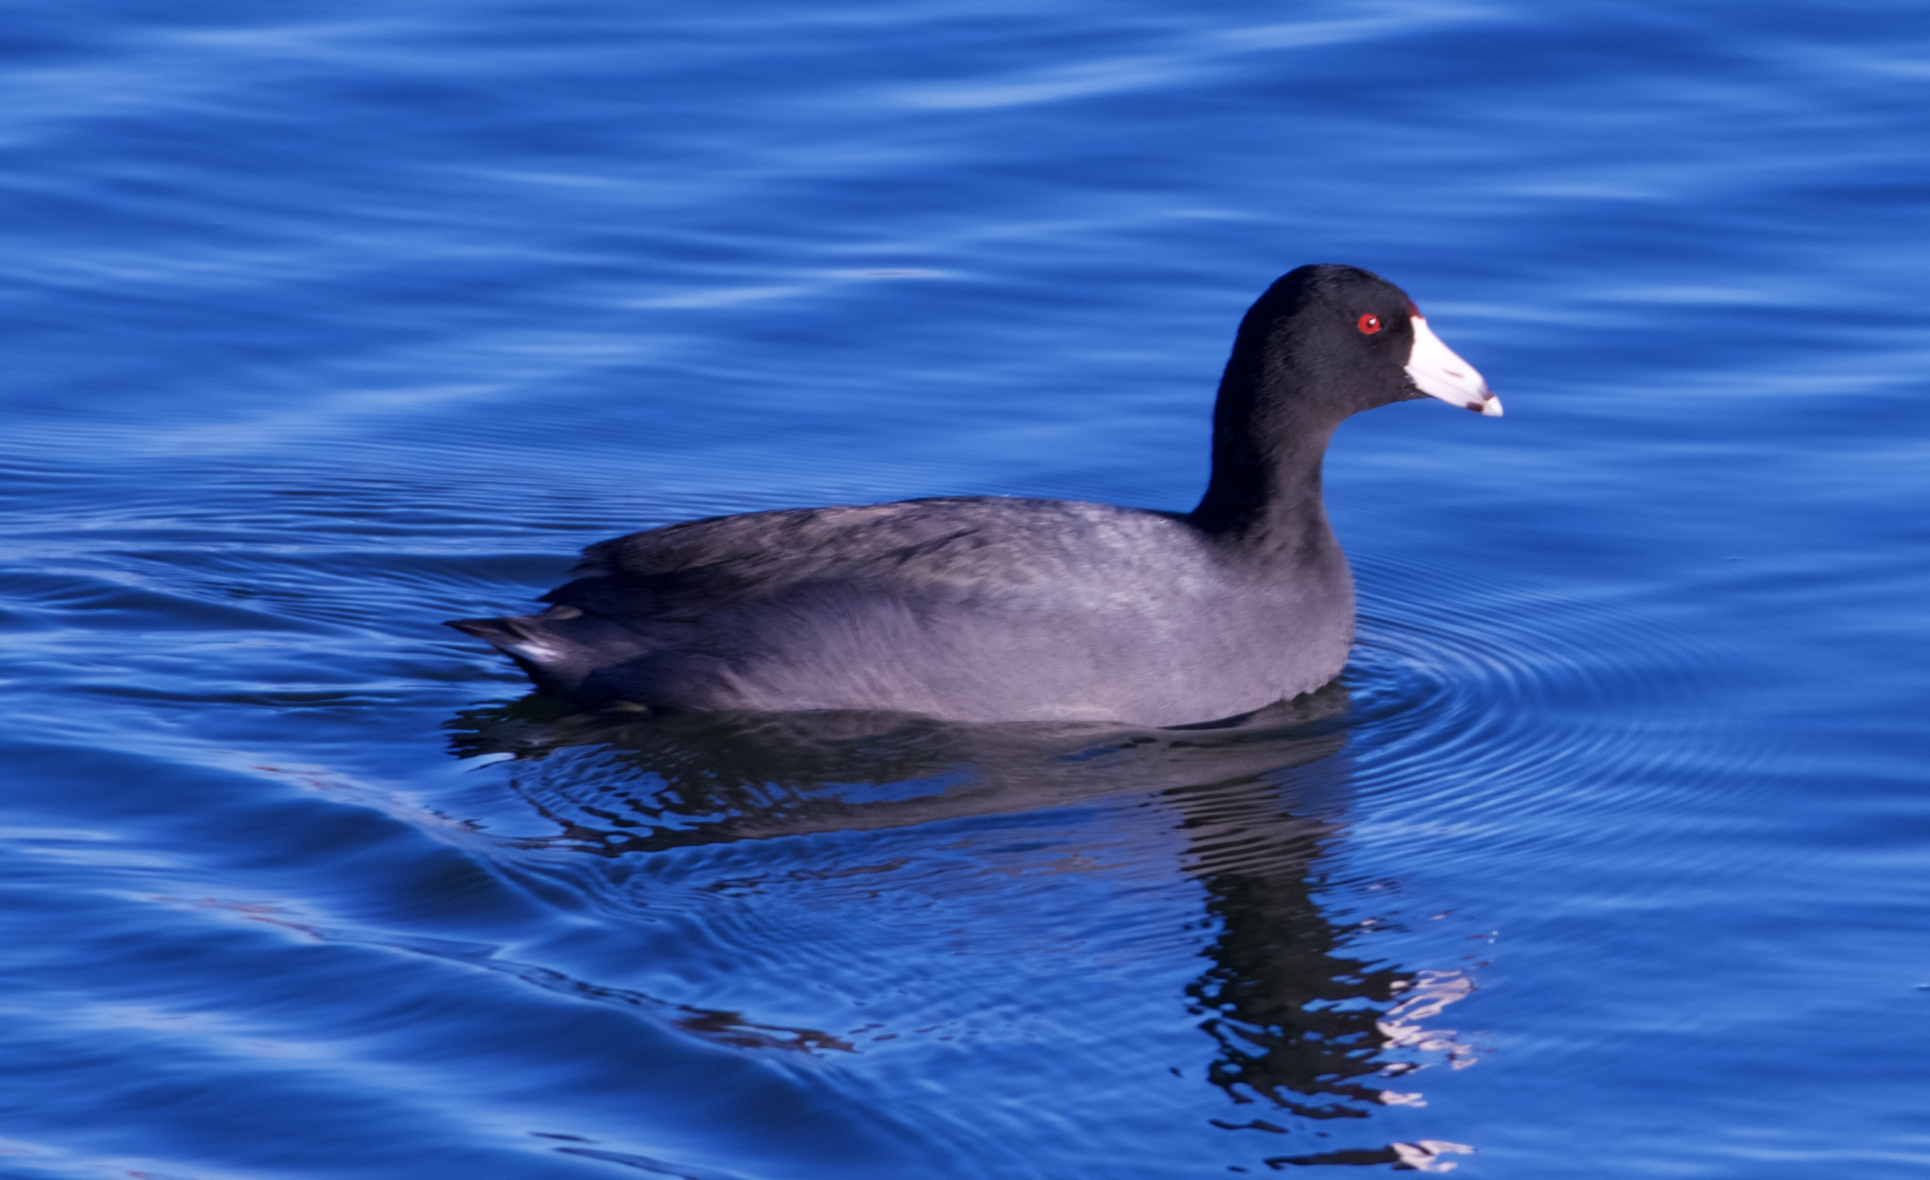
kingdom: Animalia
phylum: Chordata
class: Aves
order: Gruiformes
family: Rallidae
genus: Fulica
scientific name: Fulica americana
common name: American coot
